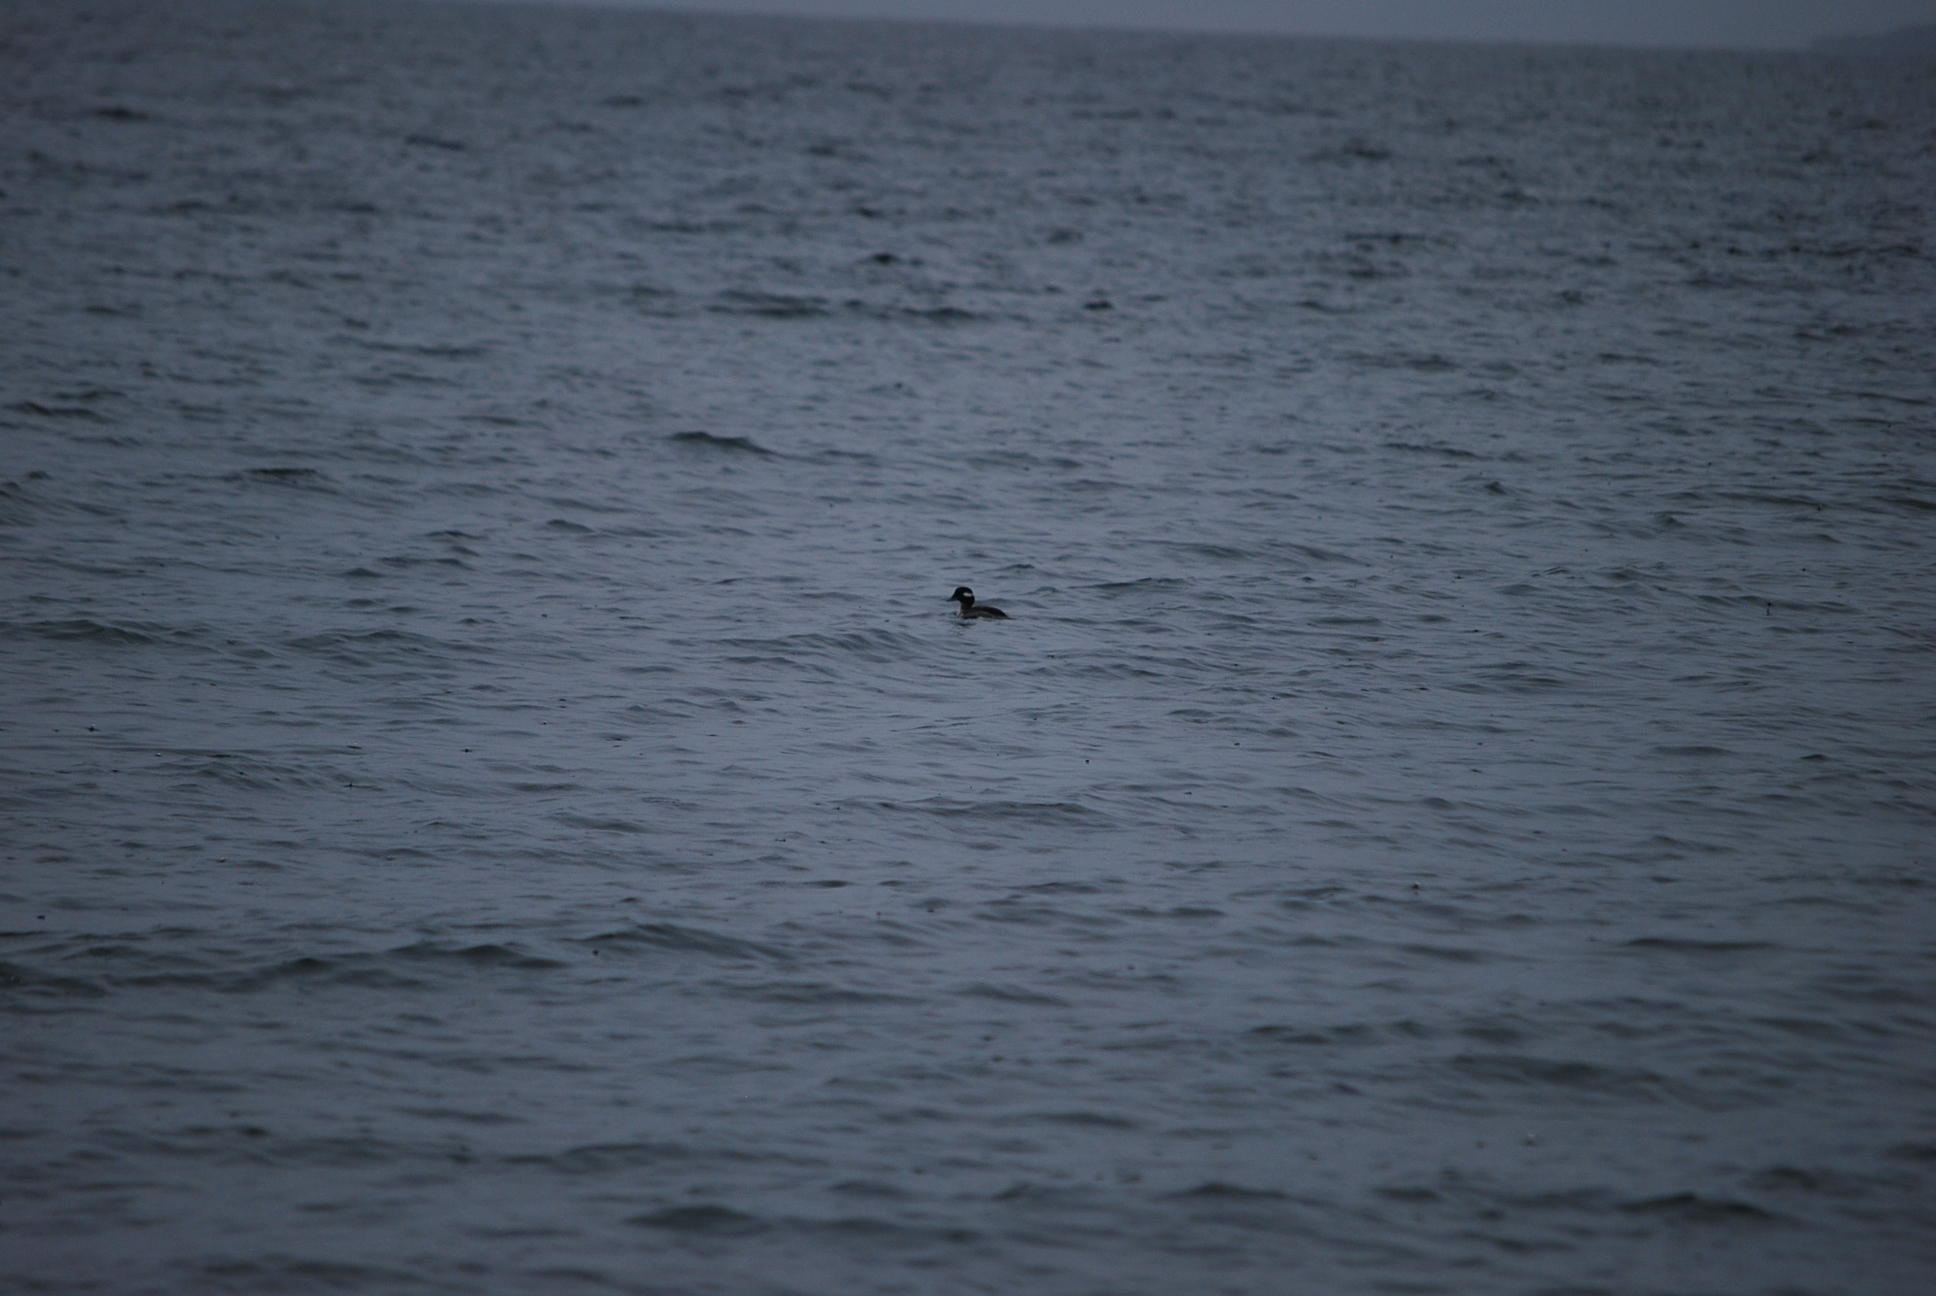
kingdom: Animalia
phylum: Chordata
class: Aves
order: Anseriformes
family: Anatidae
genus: Bucephala
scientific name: Bucephala albeola
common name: Bufflehead
